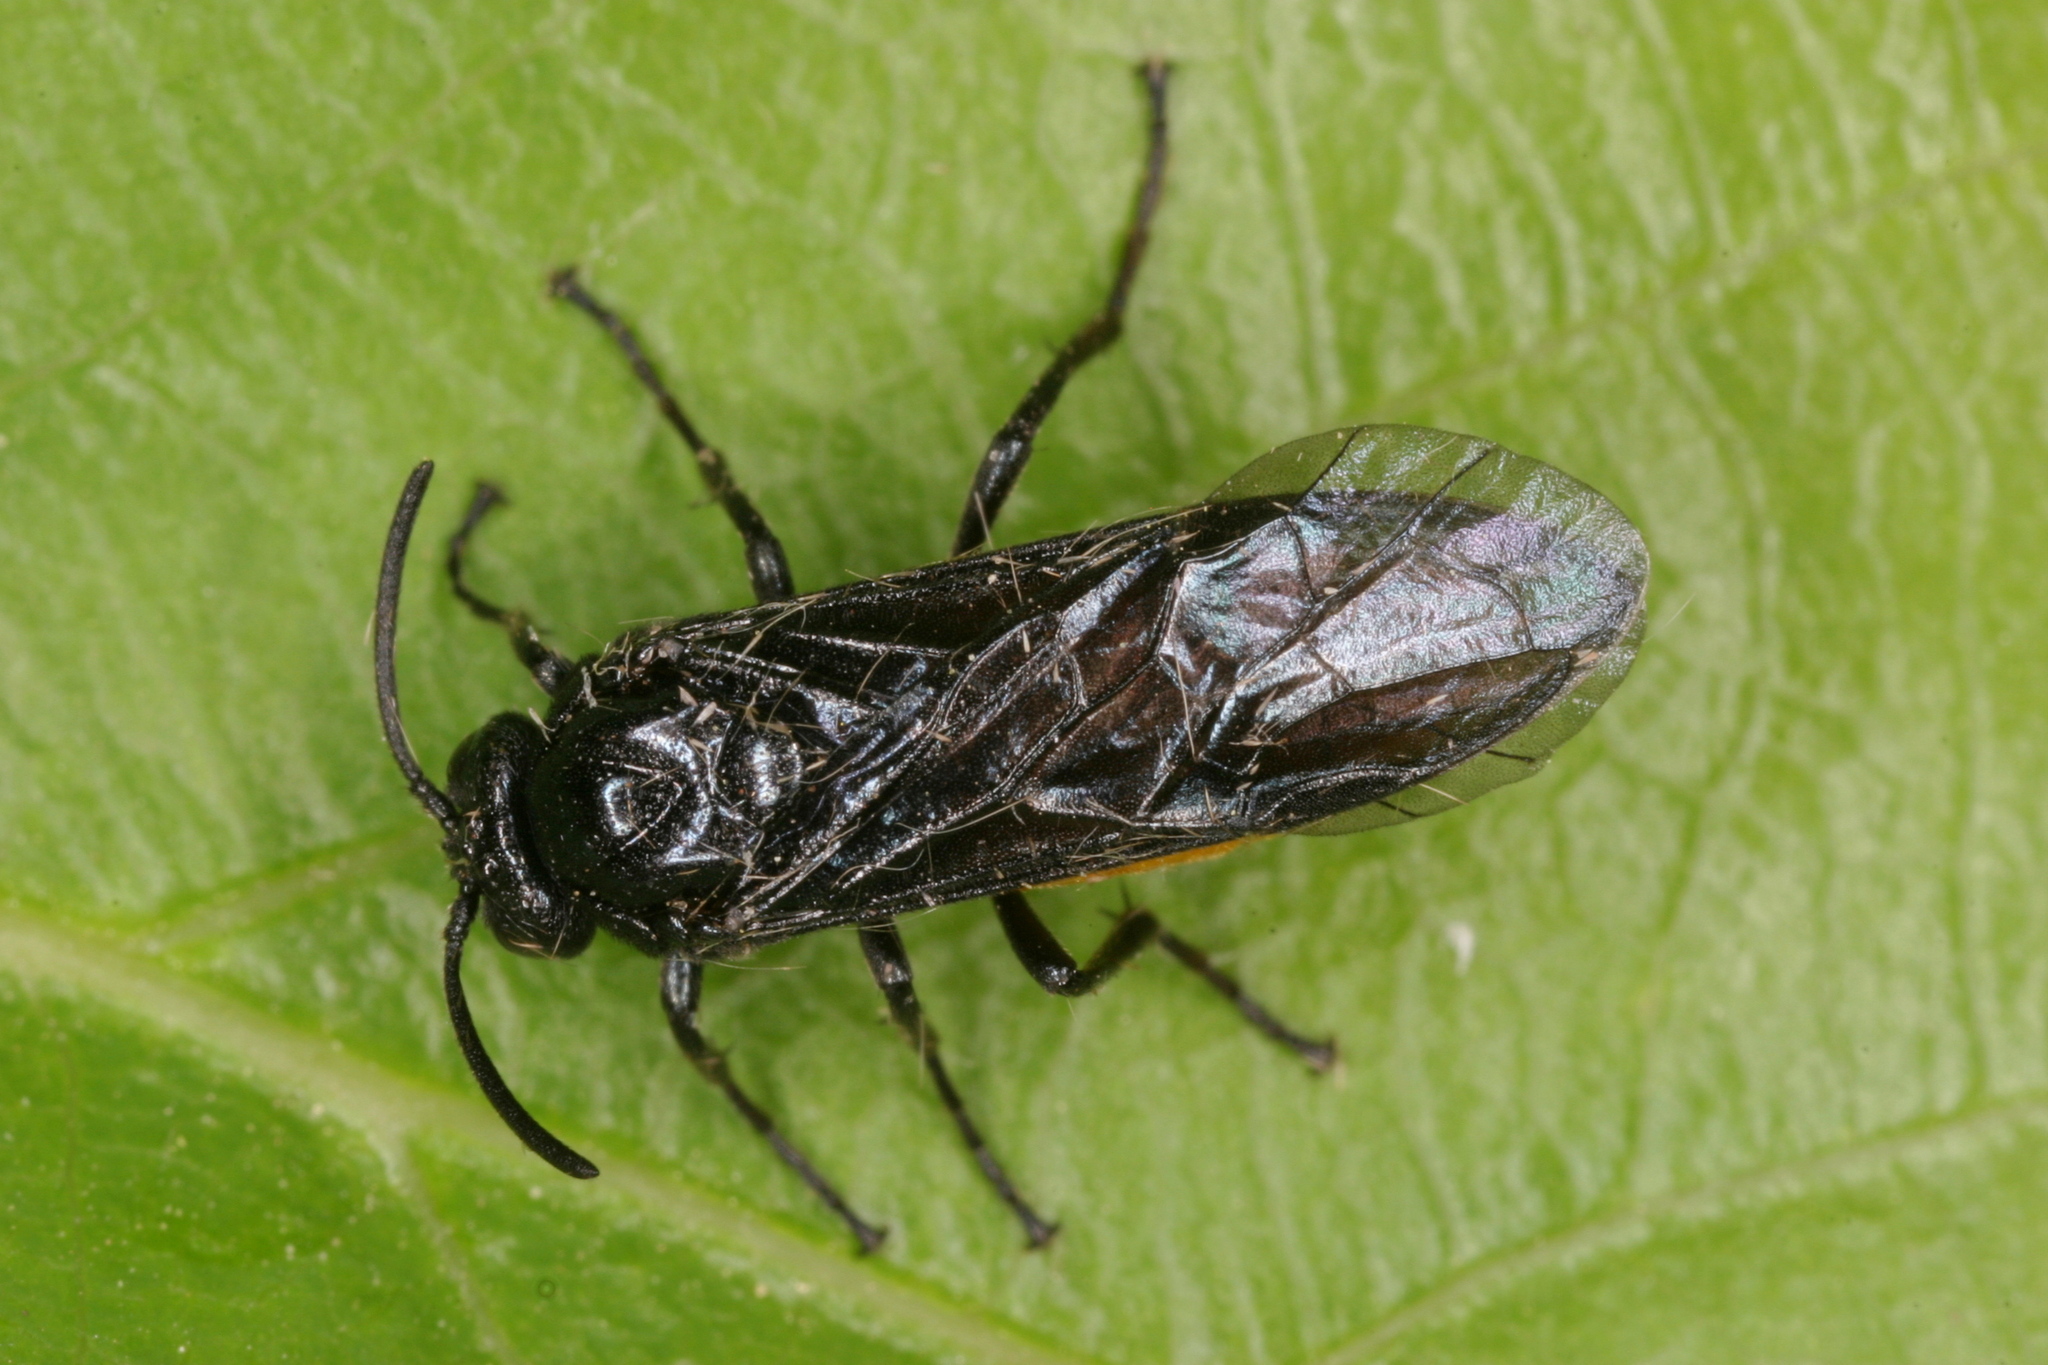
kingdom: Animalia
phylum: Arthropoda
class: Insecta
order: Hymenoptera
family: Argidae
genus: Arge
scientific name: Arge pagana
